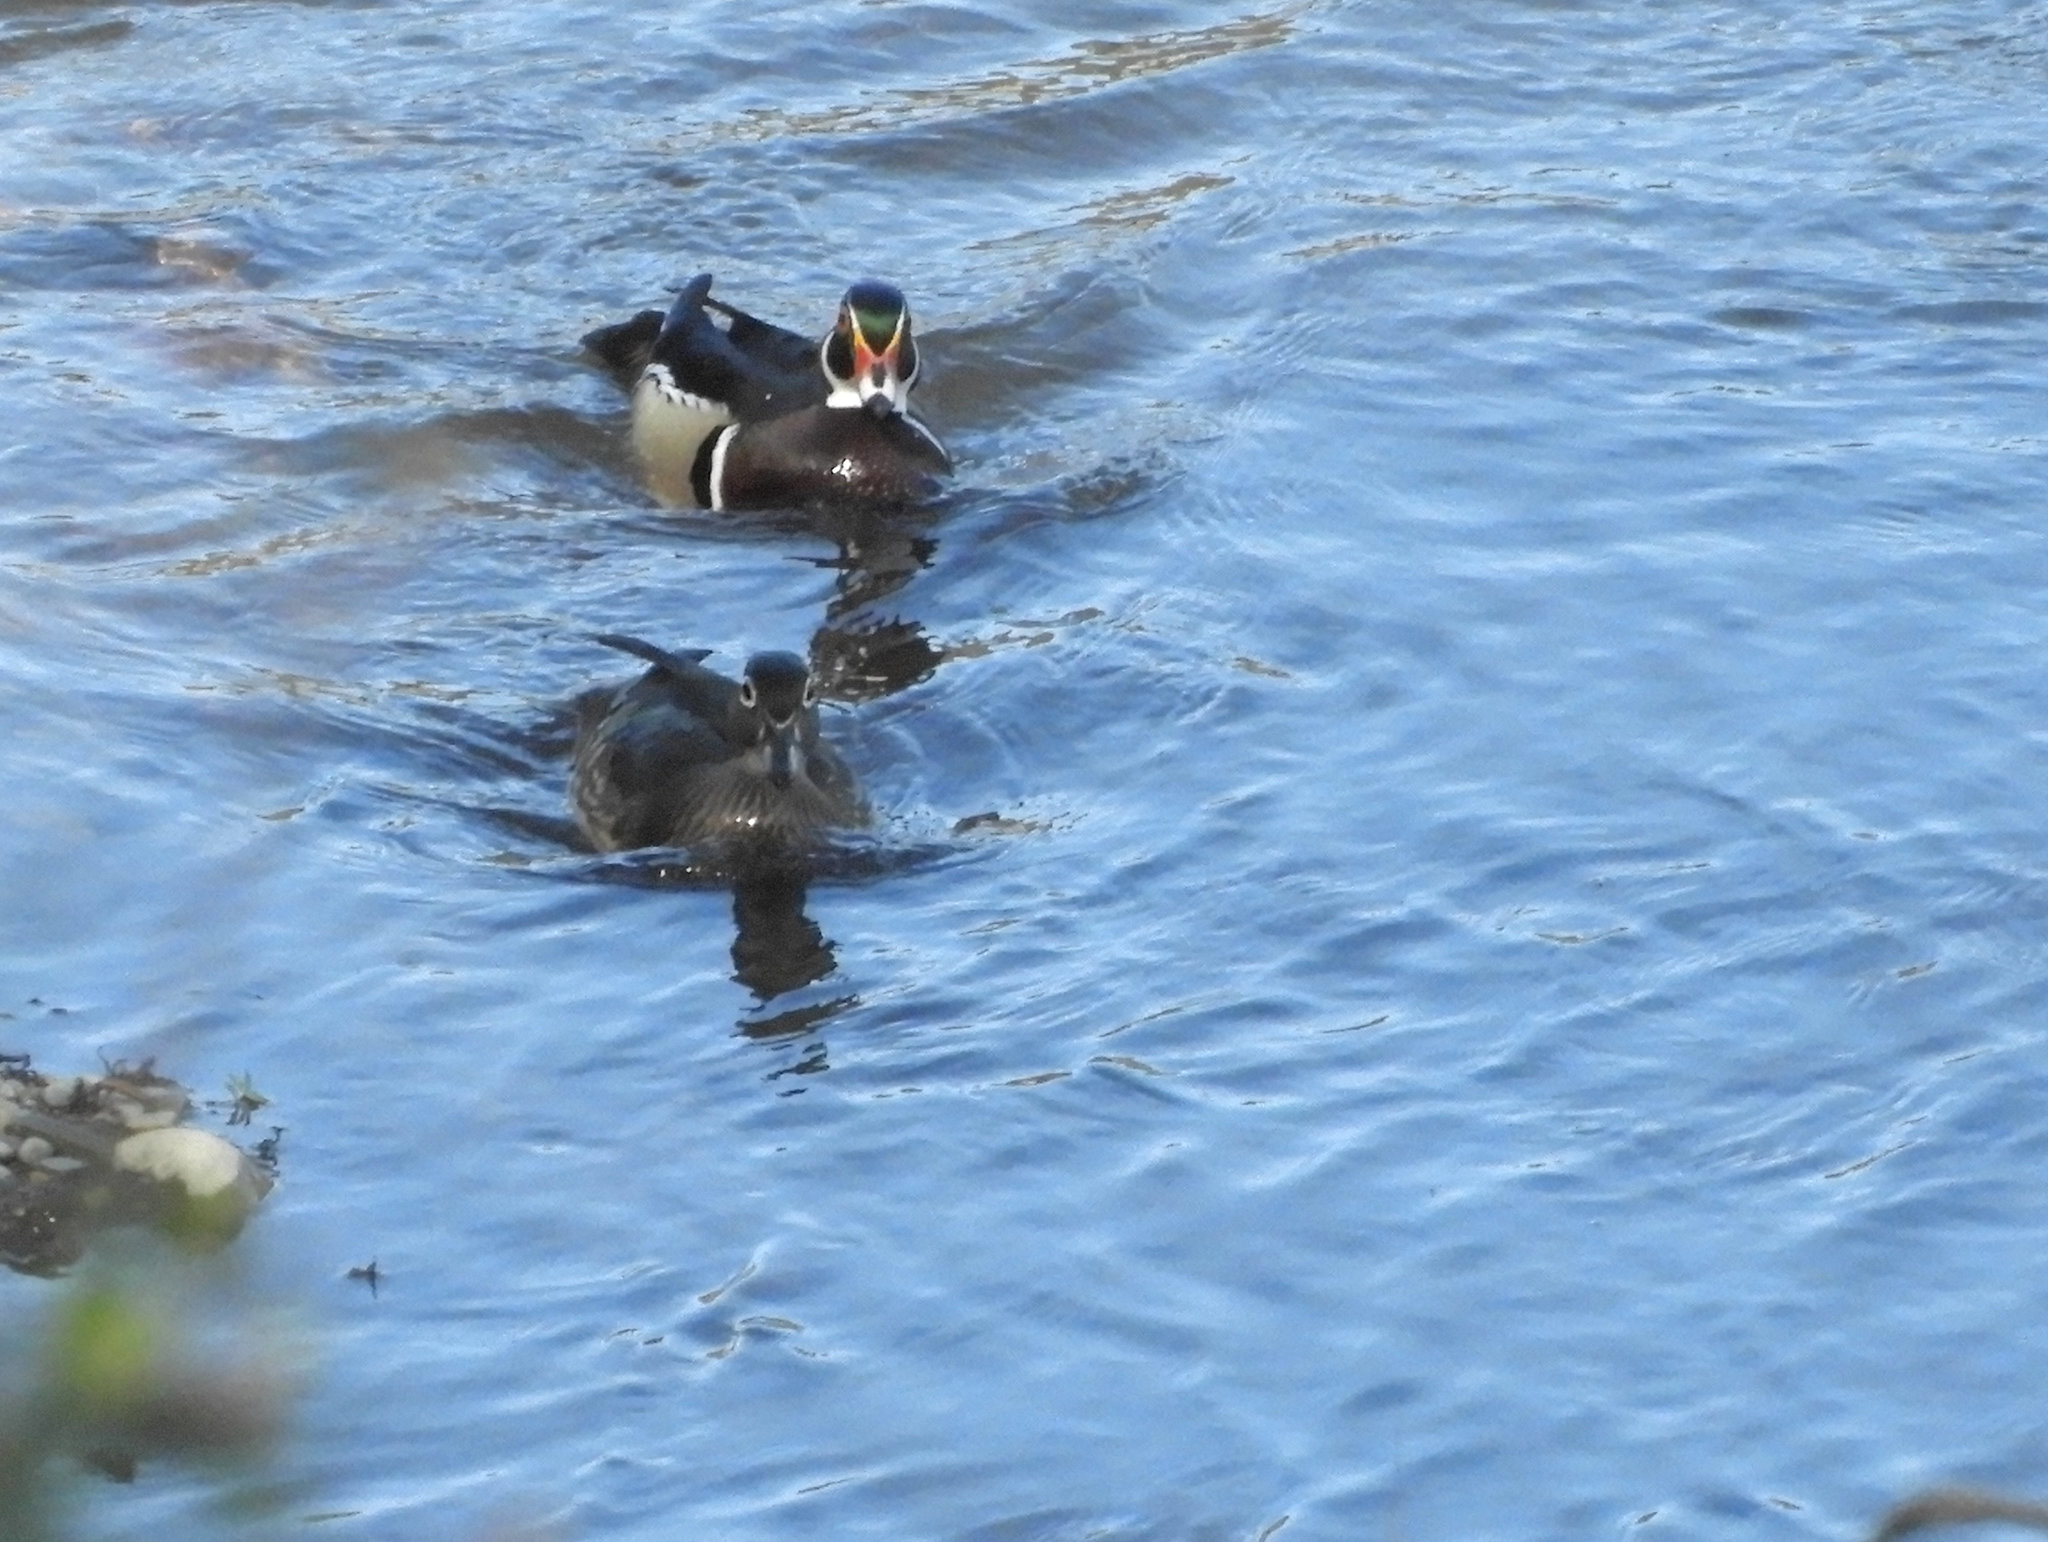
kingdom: Animalia
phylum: Chordata
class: Aves
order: Anseriformes
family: Anatidae
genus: Aix
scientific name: Aix sponsa
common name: Wood duck
